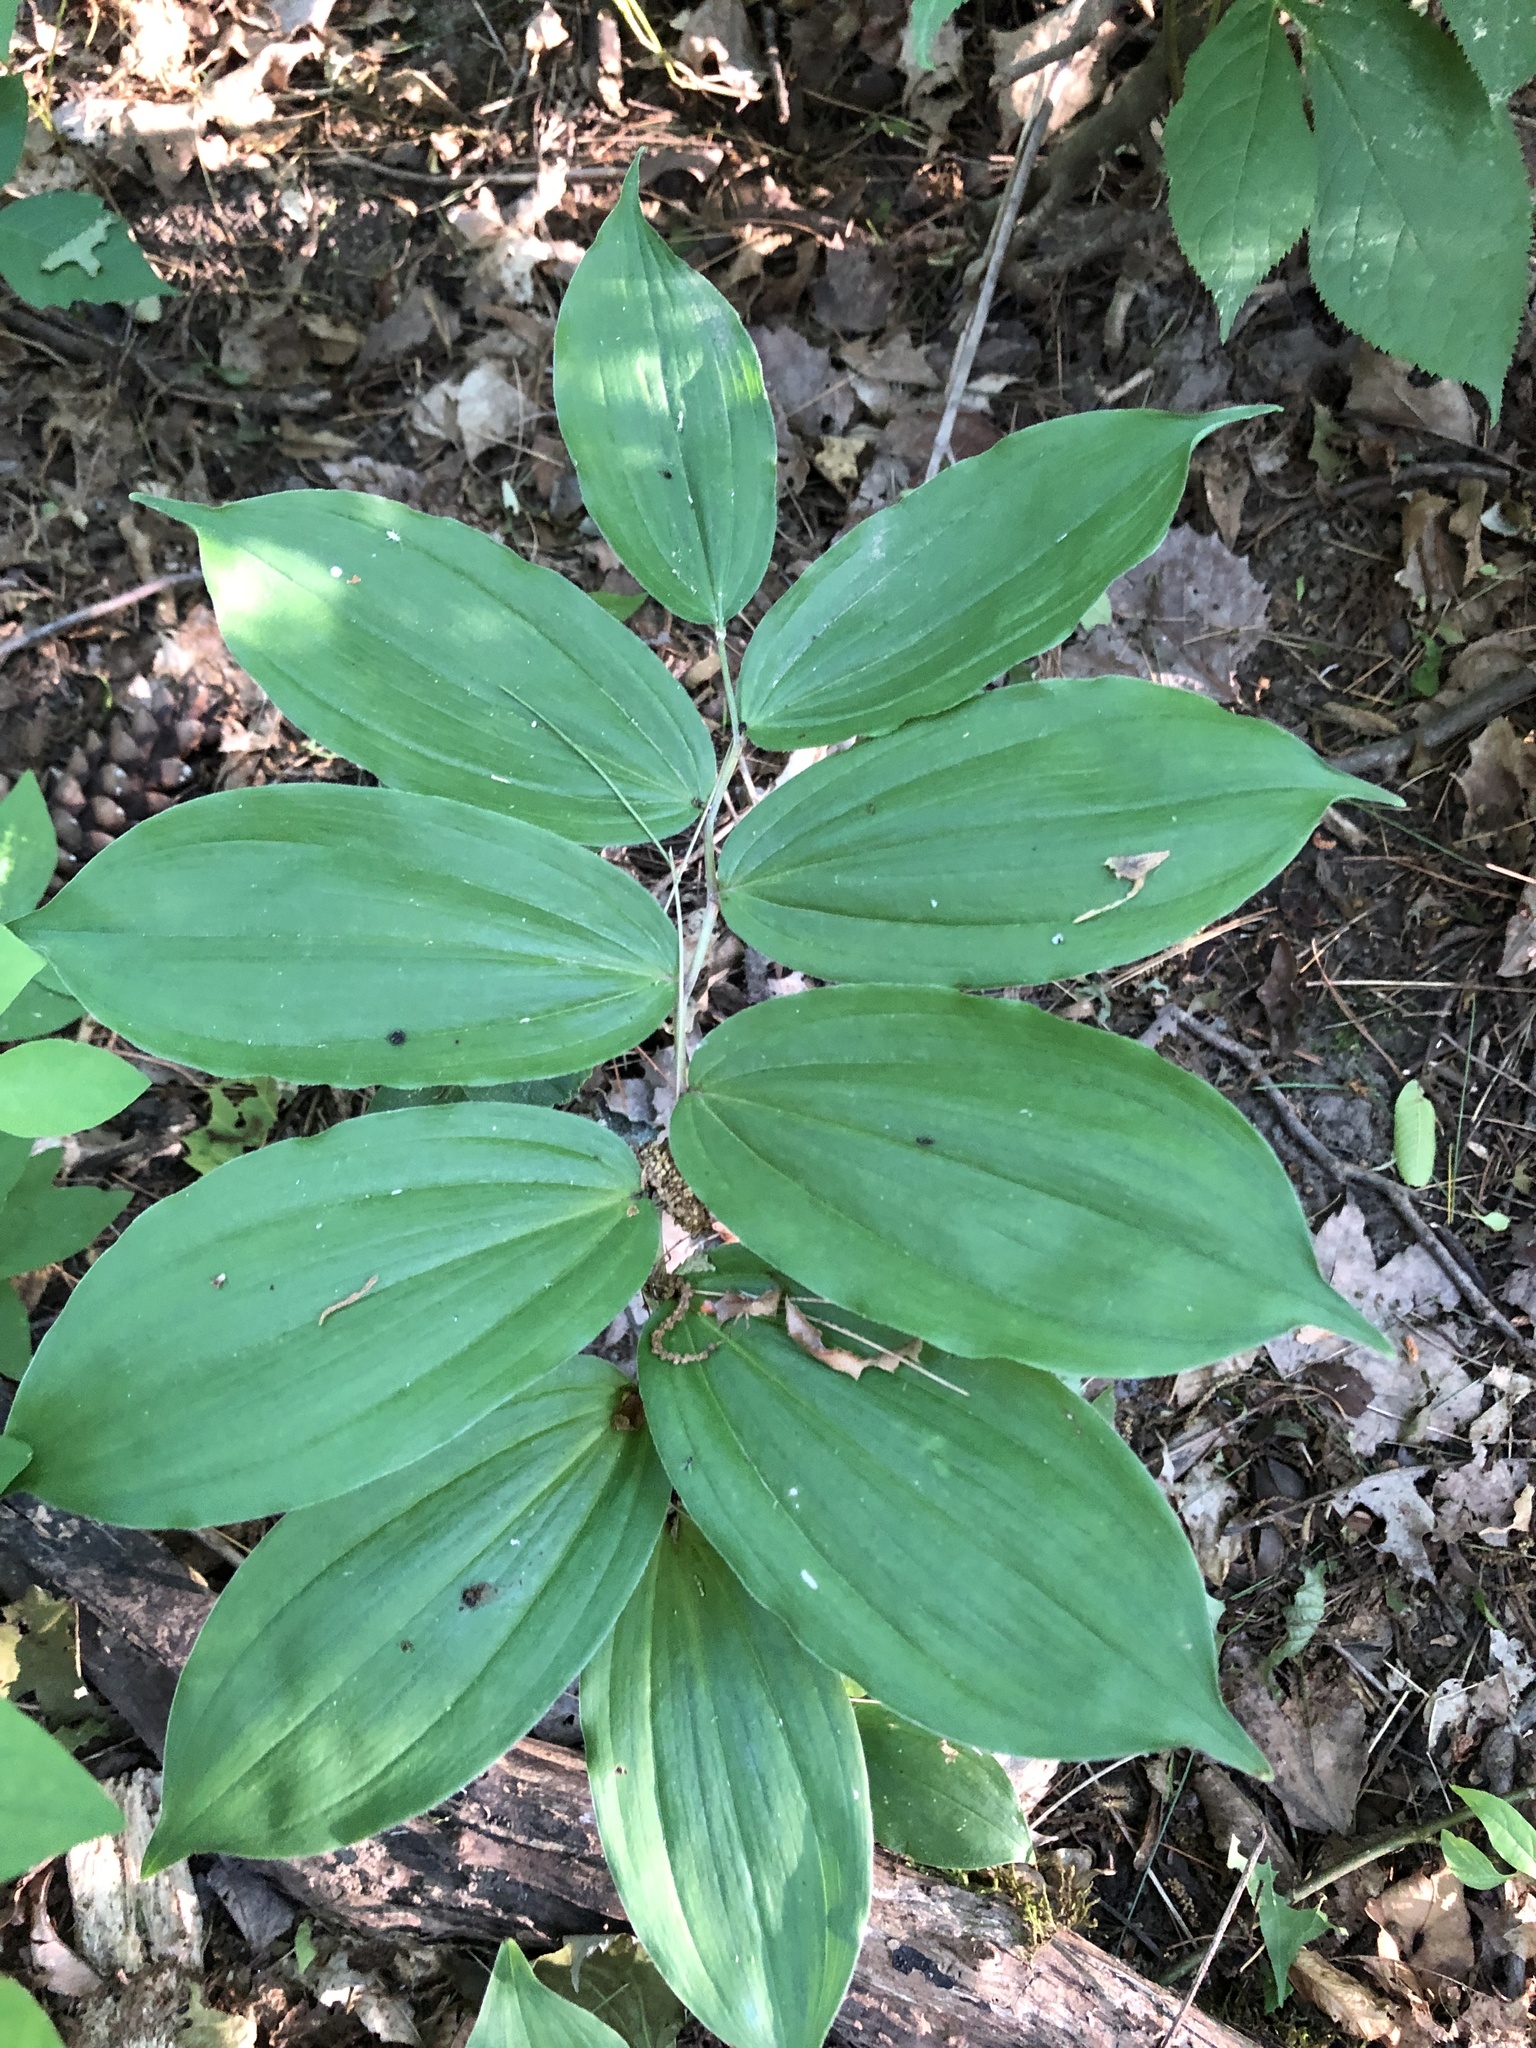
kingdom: Plantae
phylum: Tracheophyta
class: Liliopsida
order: Asparagales
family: Asparagaceae
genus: Maianthemum
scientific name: Maianthemum racemosum
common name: False spikenard
